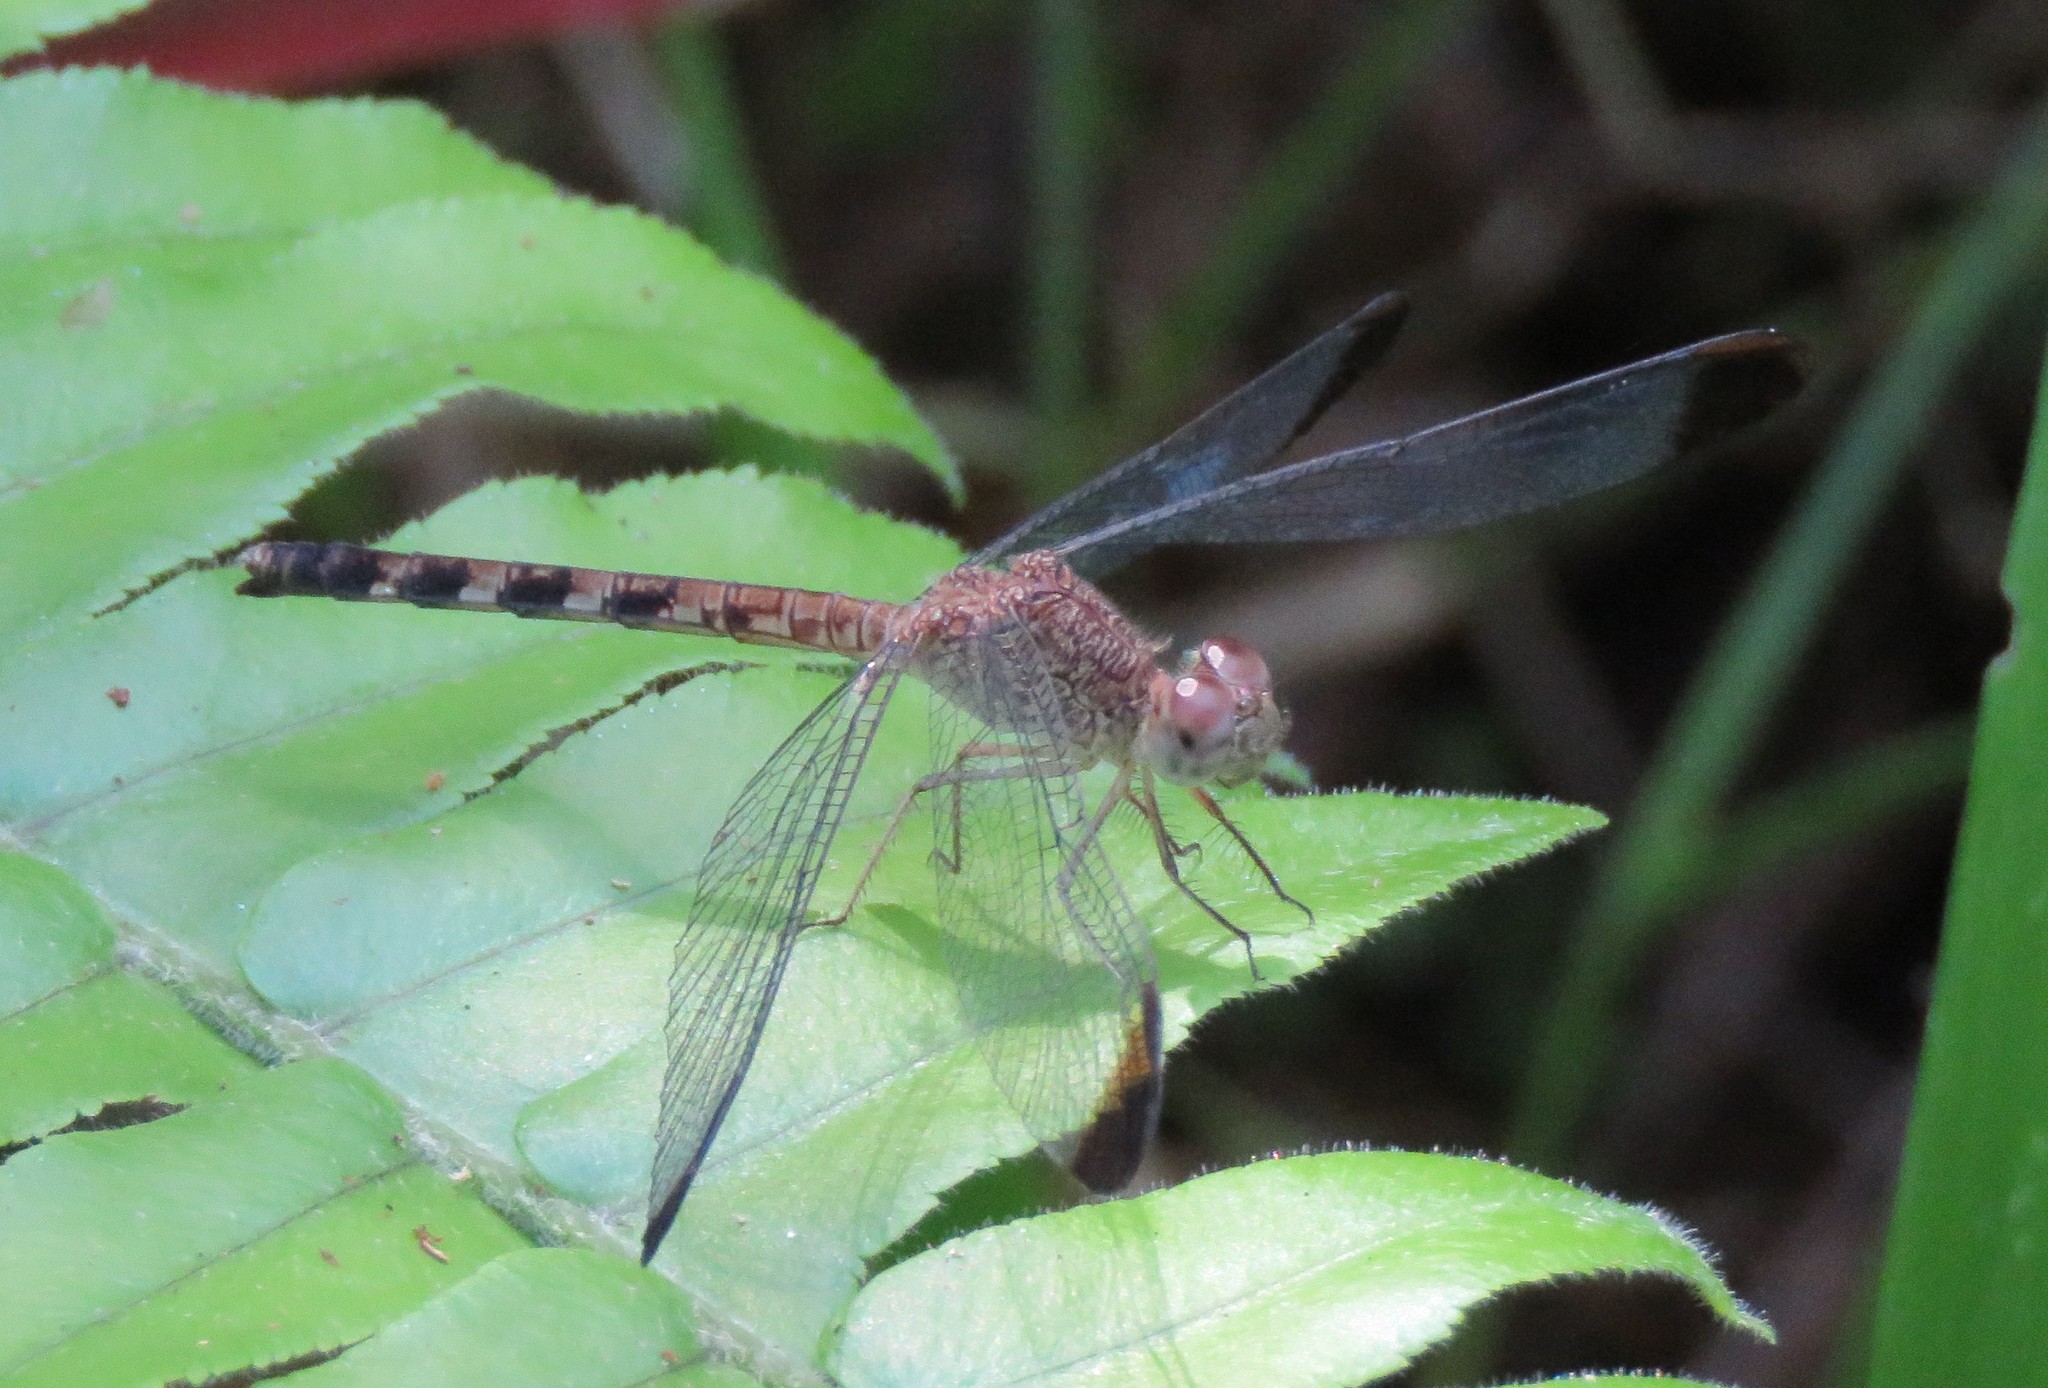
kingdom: Animalia
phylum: Arthropoda
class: Insecta
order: Odonata
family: Libellulidae
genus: Uracis
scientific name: Uracis imbuta
